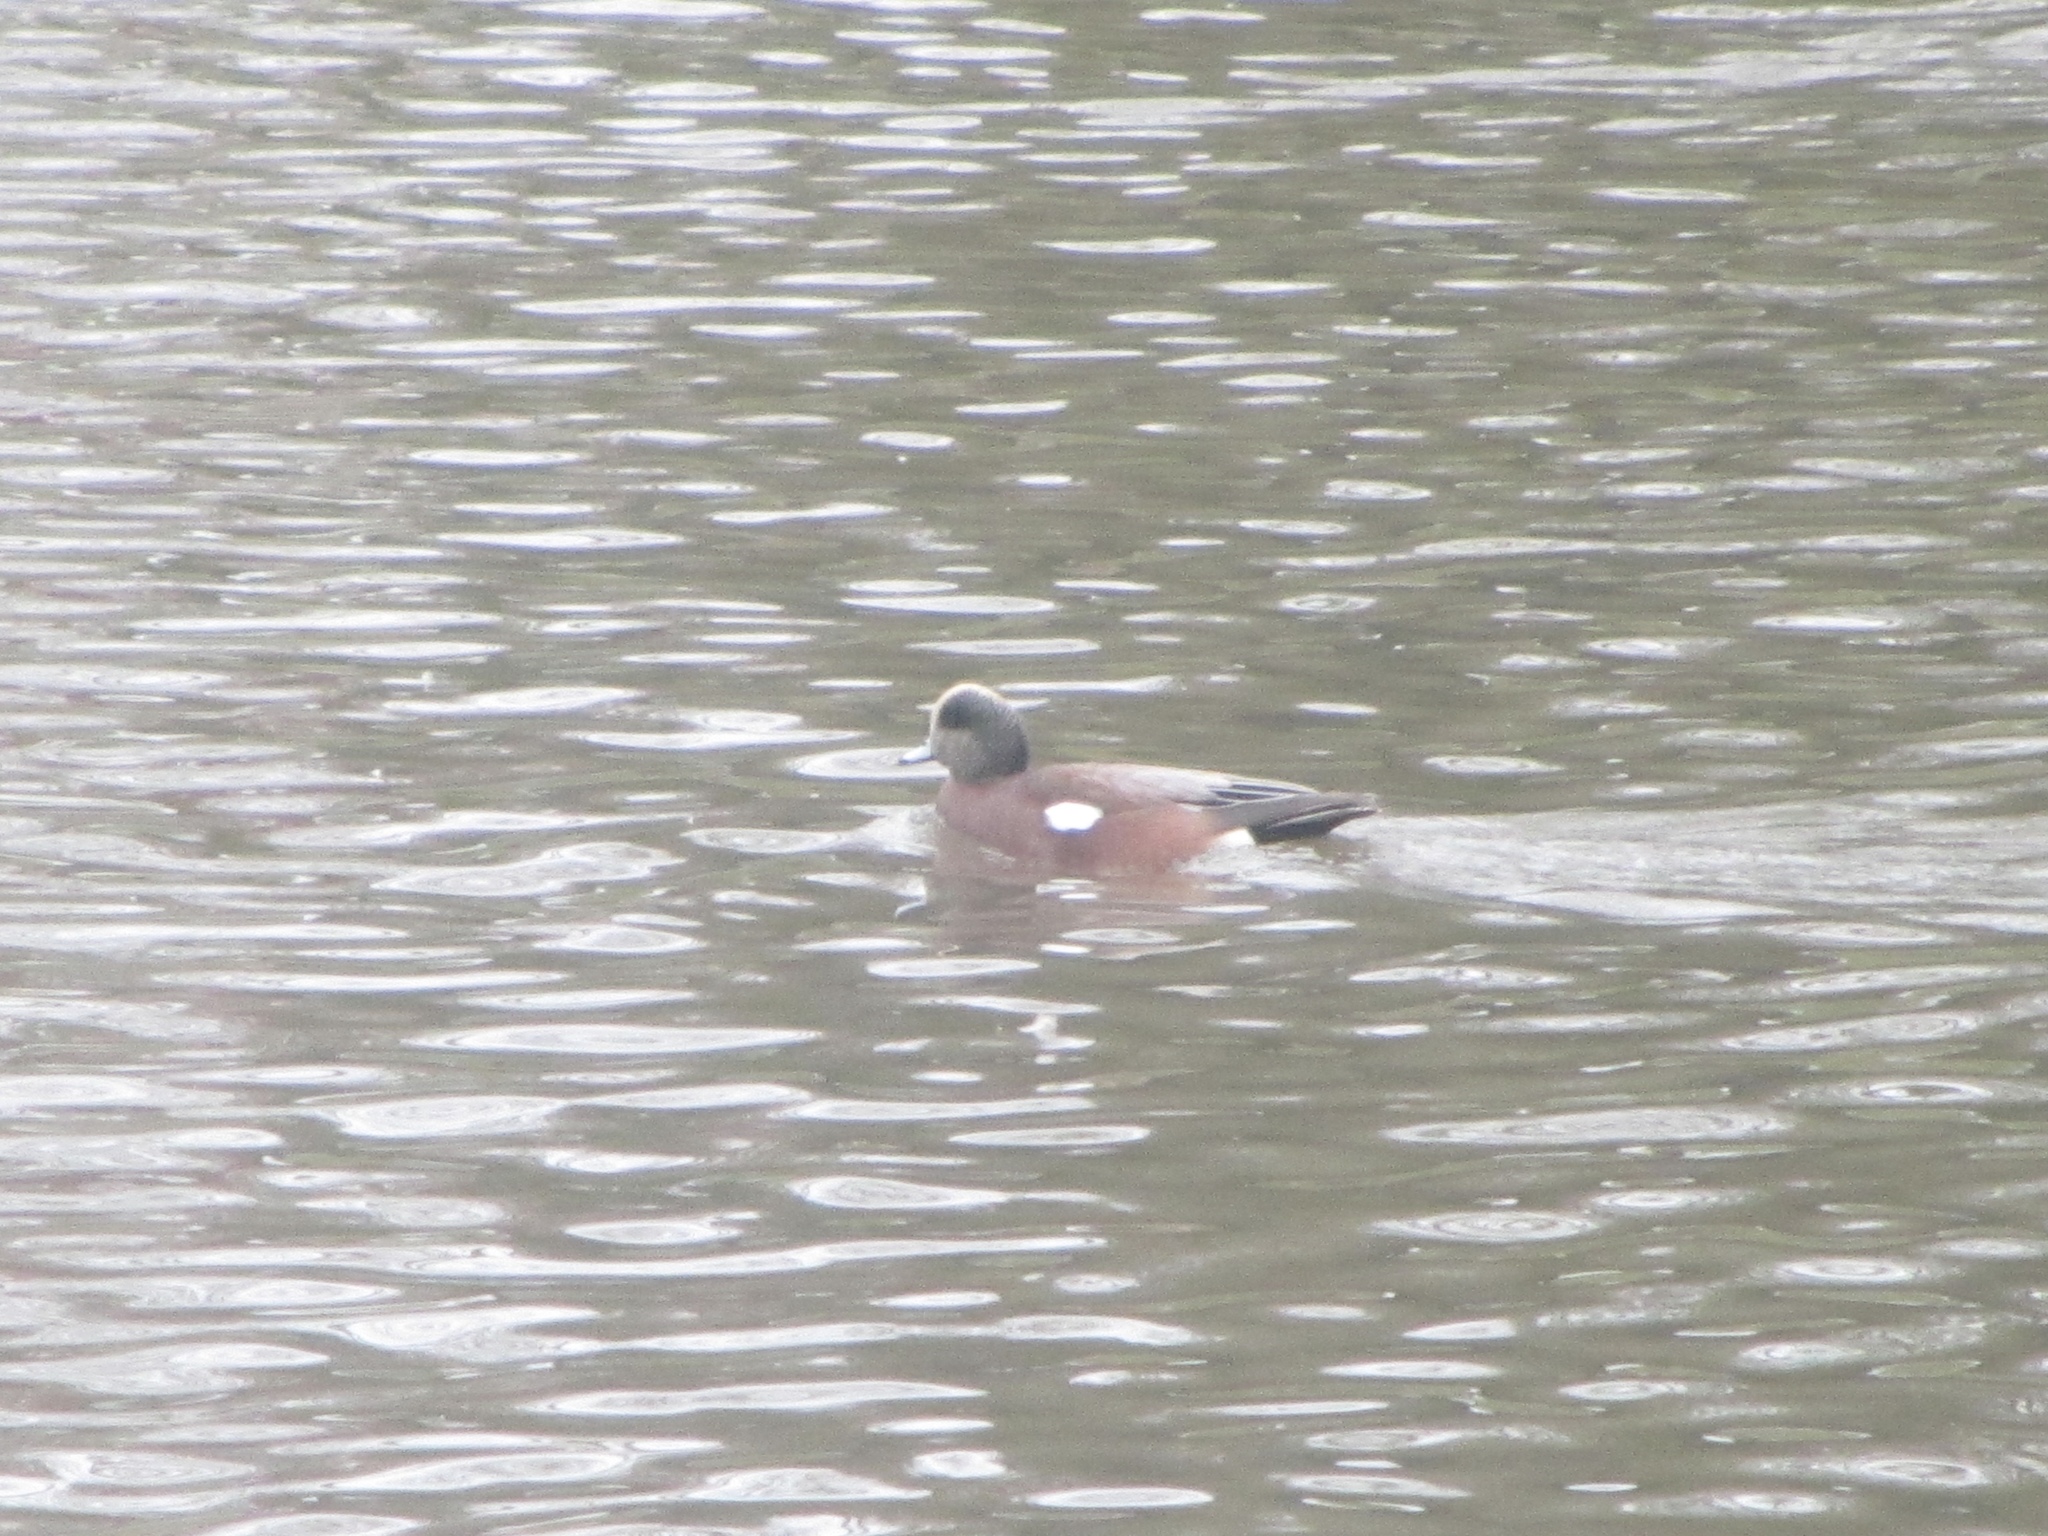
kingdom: Animalia
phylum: Chordata
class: Aves
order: Anseriformes
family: Anatidae
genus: Mareca
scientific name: Mareca americana
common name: American wigeon
